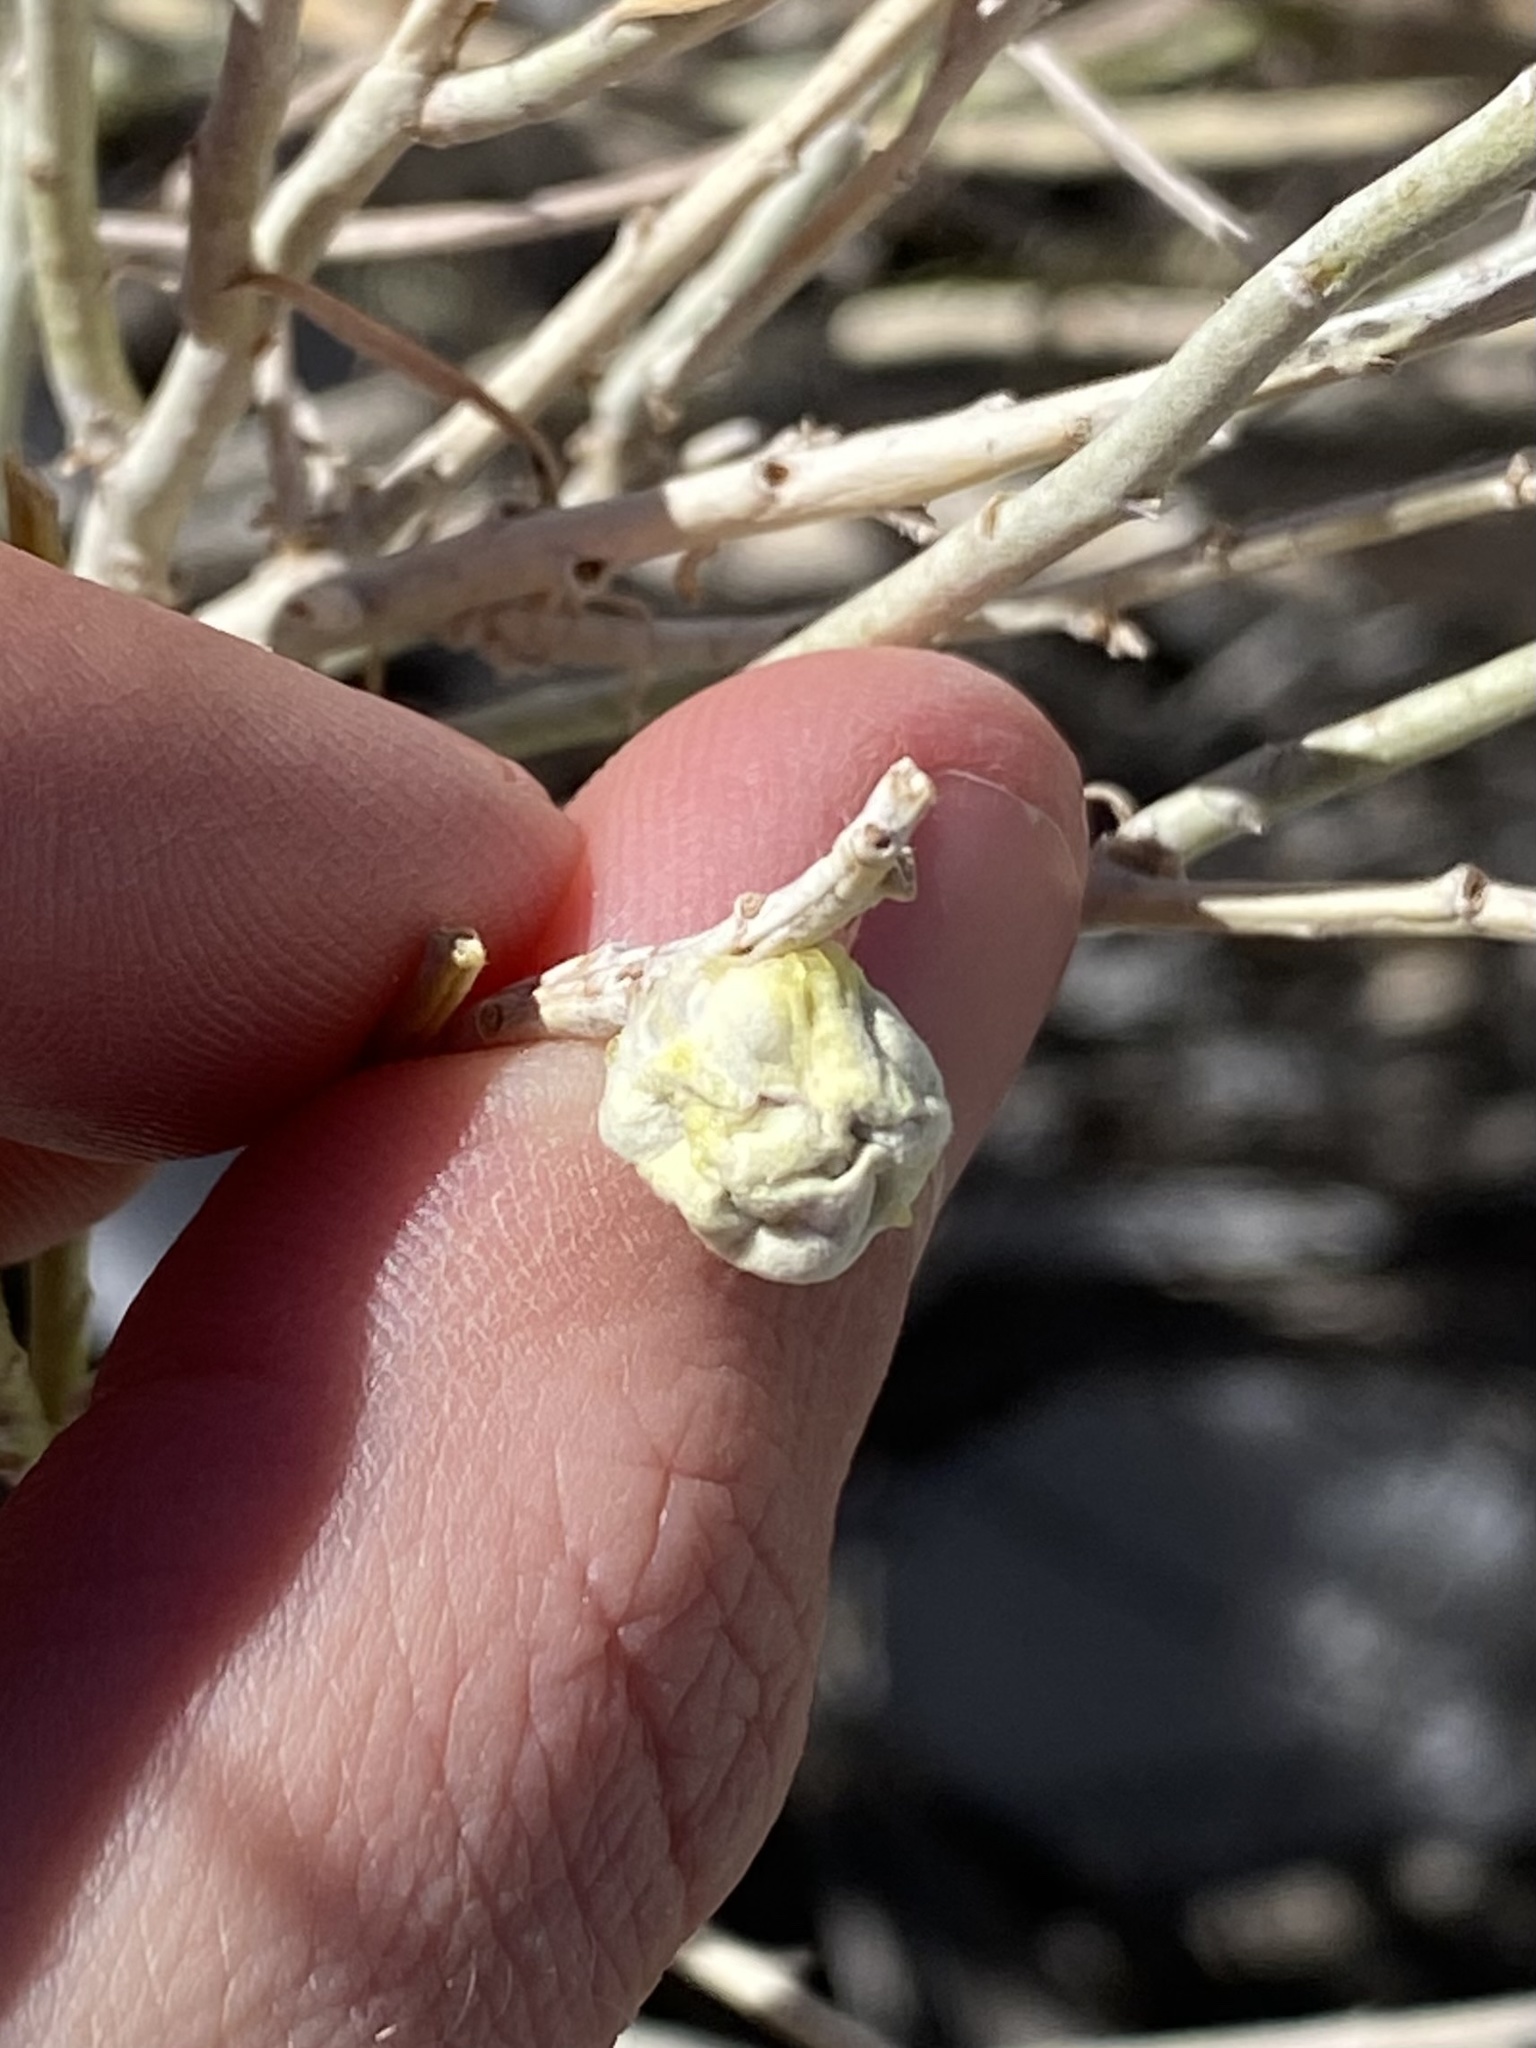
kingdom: Animalia
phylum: Arthropoda
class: Insecta
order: Diptera
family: Tephritidae
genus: Aciurina
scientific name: Aciurina trixa
